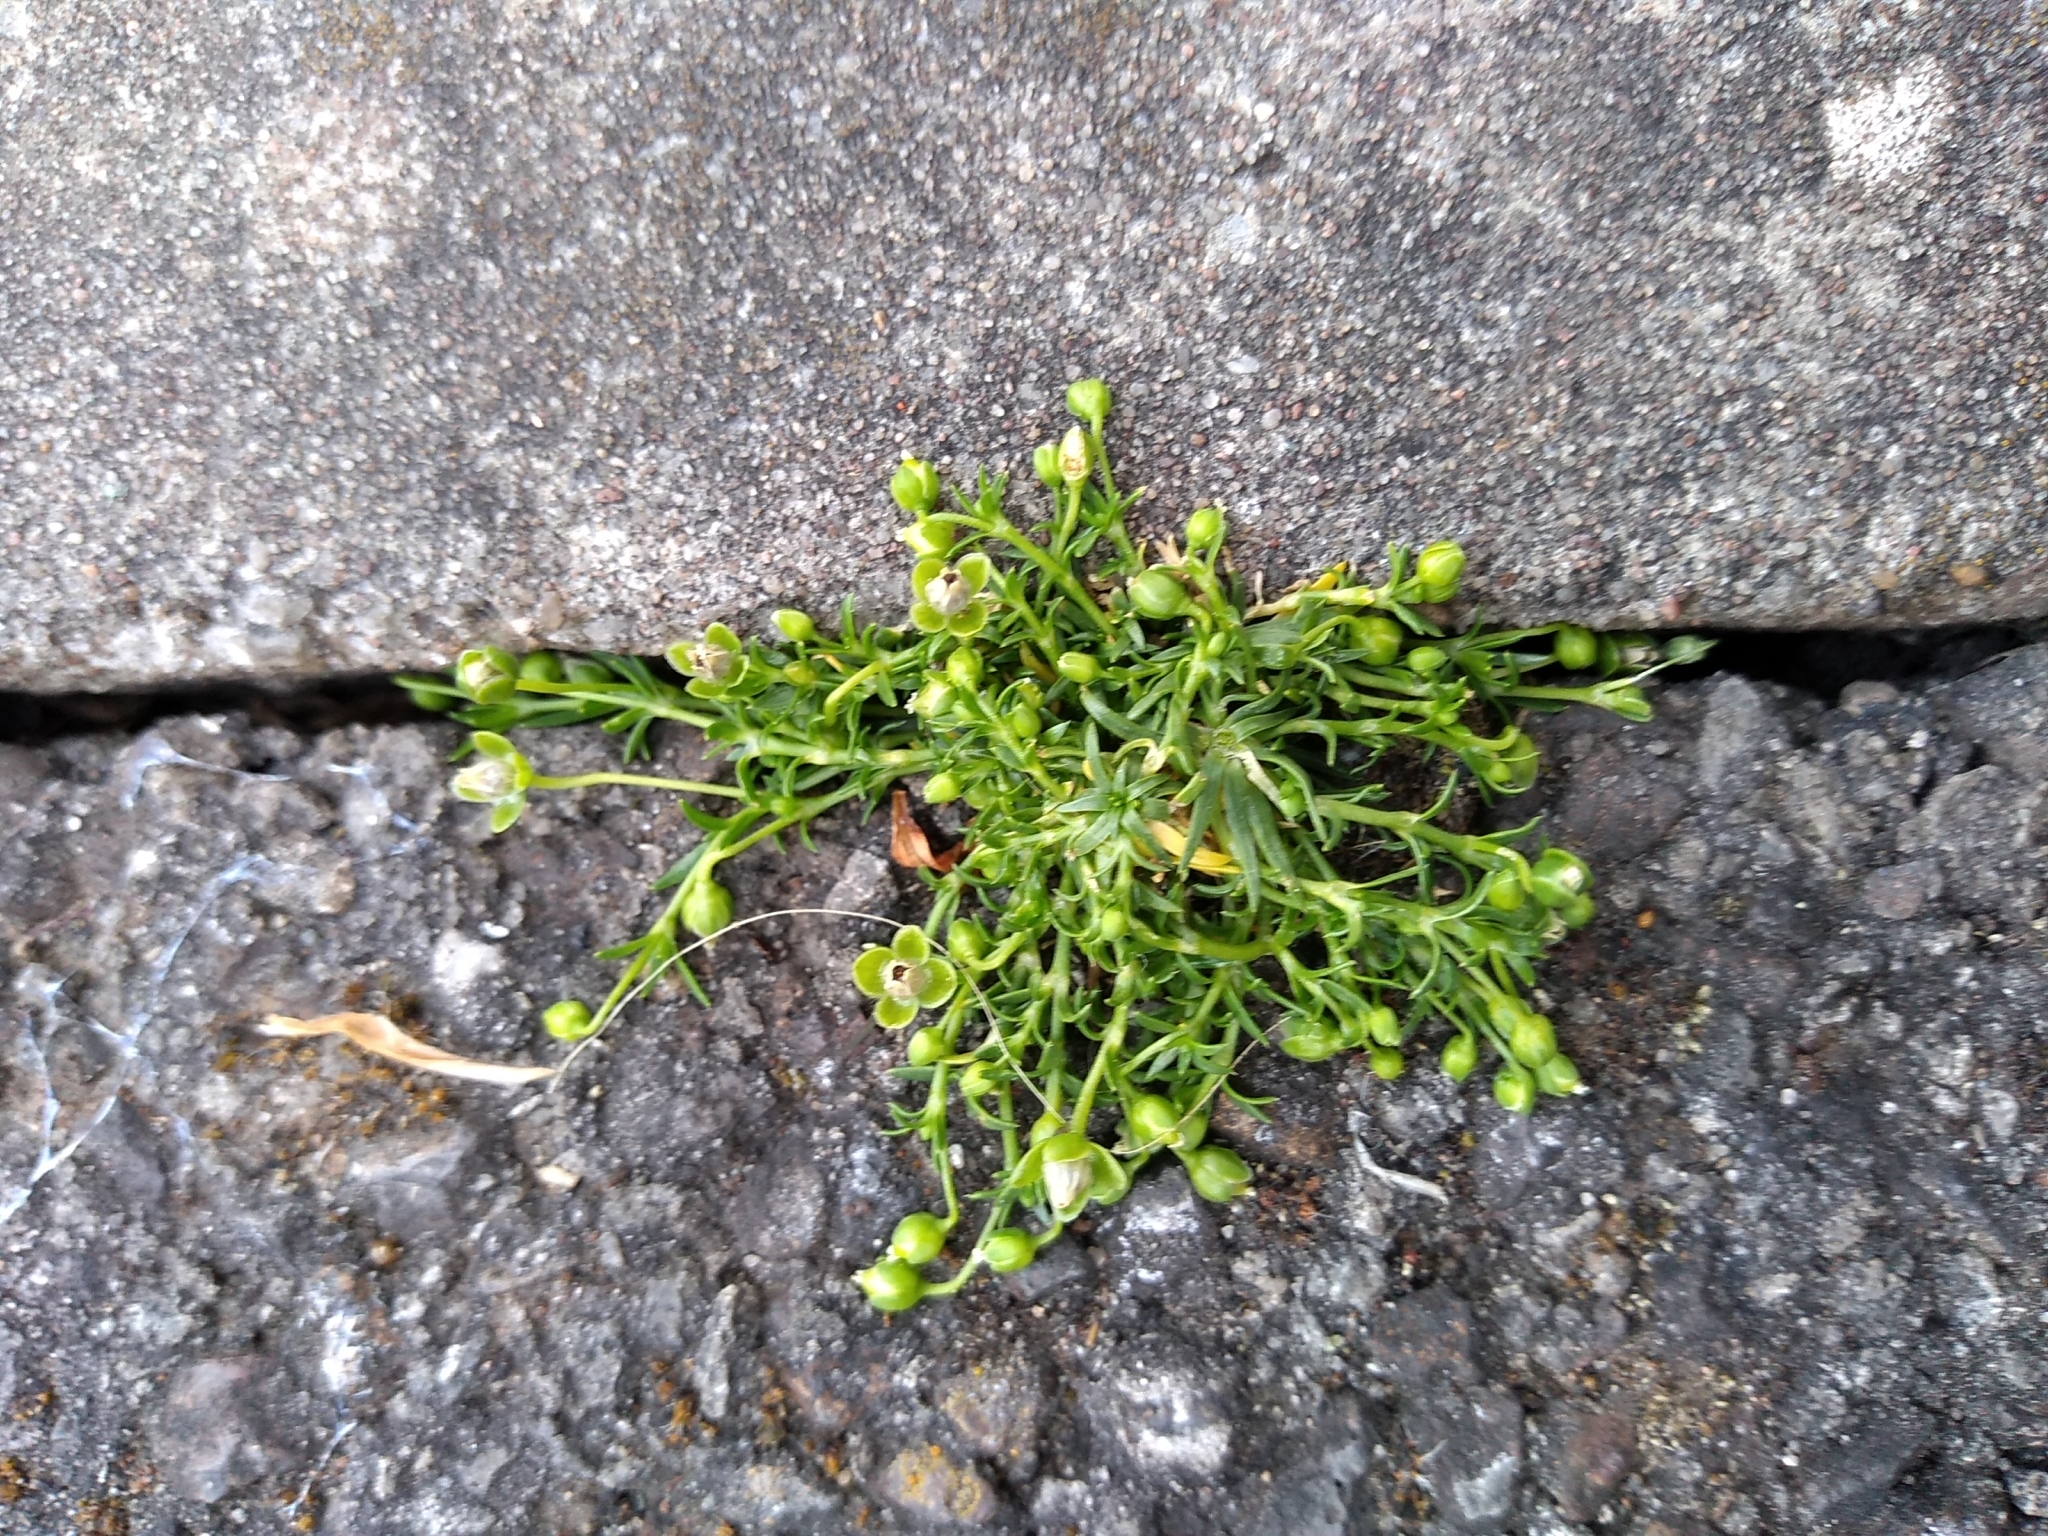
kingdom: Plantae
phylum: Tracheophyta
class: Magnoliopsida
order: Caryophyllales
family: Caryophyllaceae
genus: Sagina
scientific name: Sagina procumbens
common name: Procumbent pearlwort
